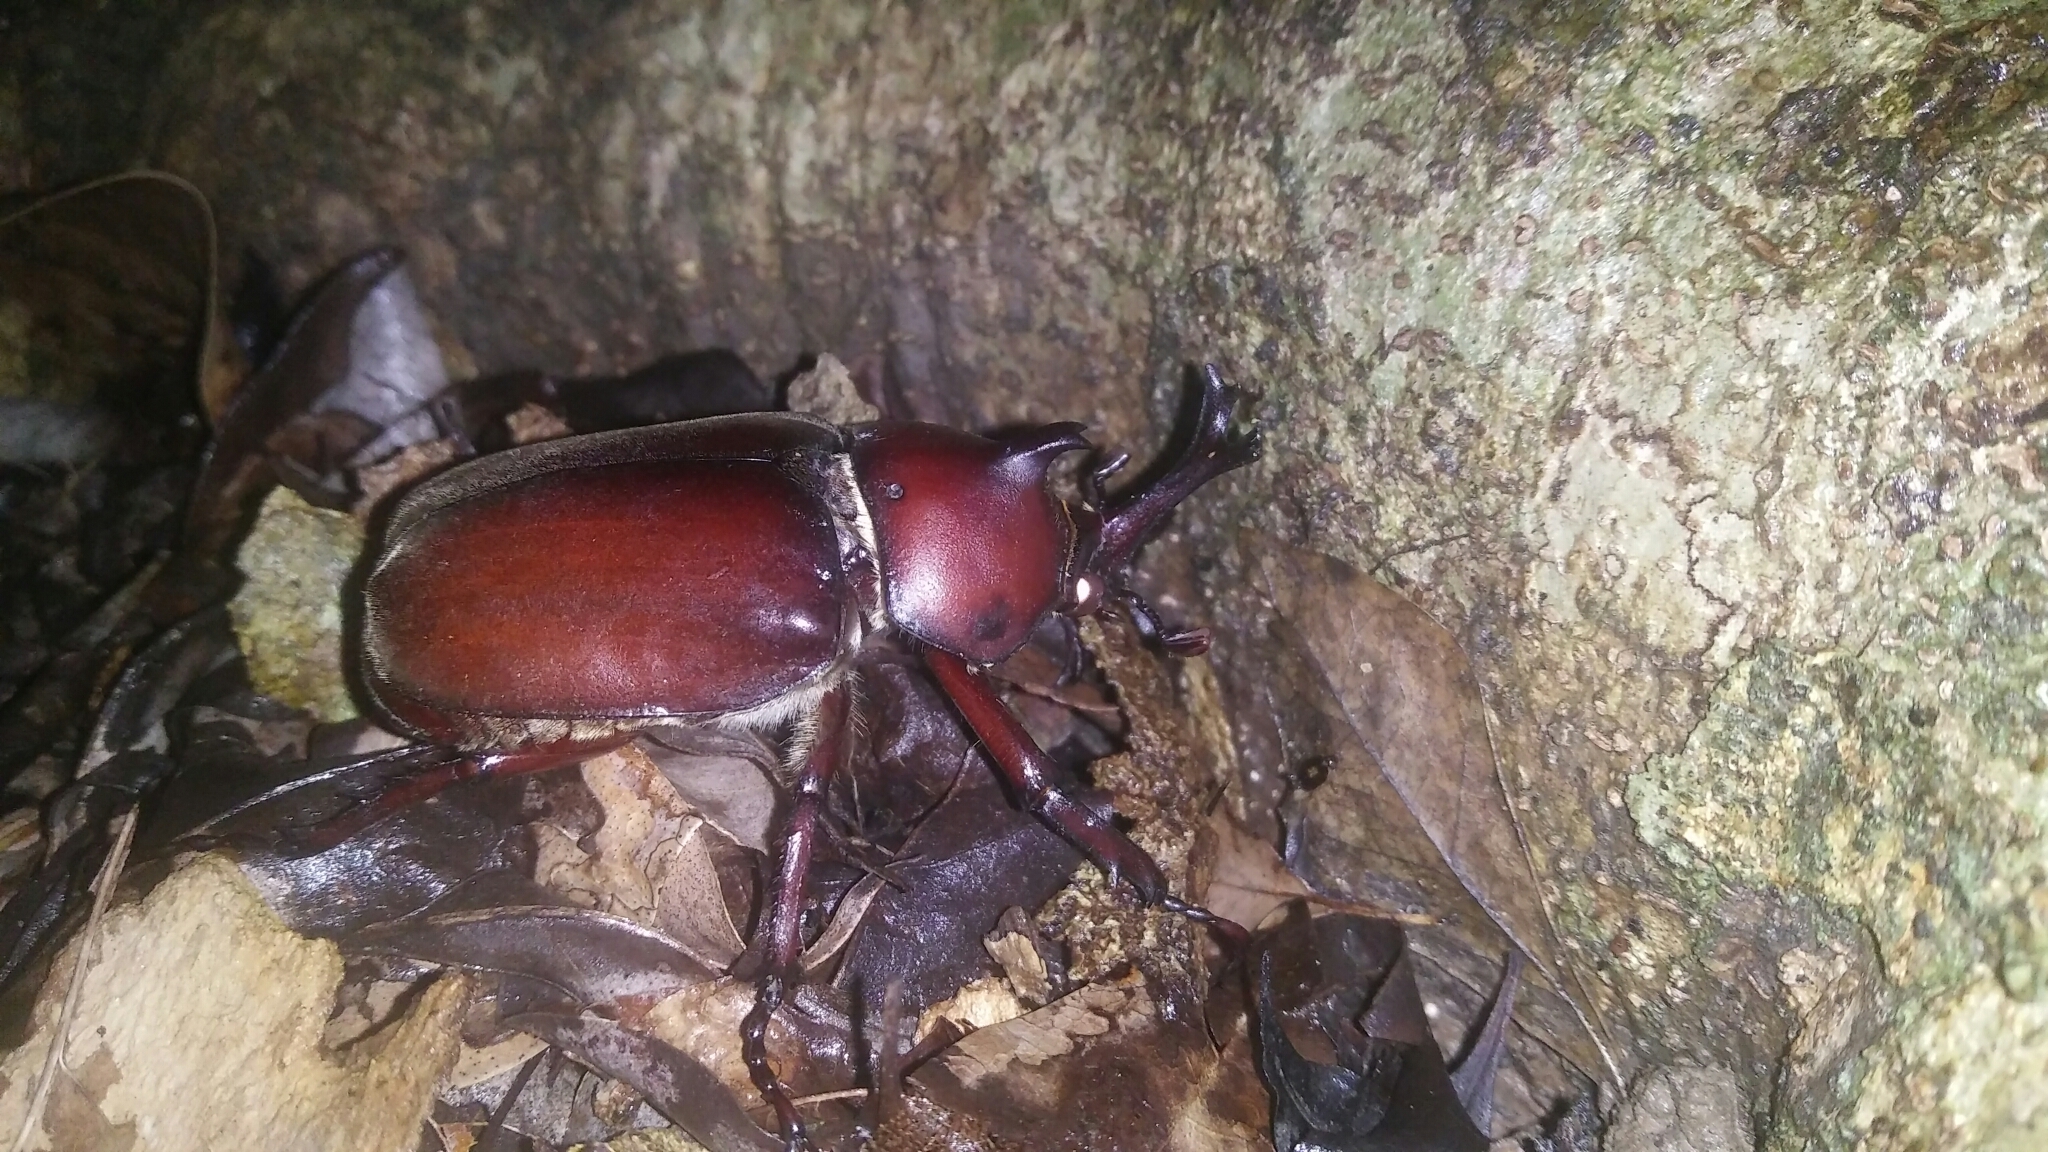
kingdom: Animalia
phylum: Arthropoda
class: Insecta
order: Coleoptera
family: Scarabaeidae
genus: Trypoxylus
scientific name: Trypoxylus dichotomus
